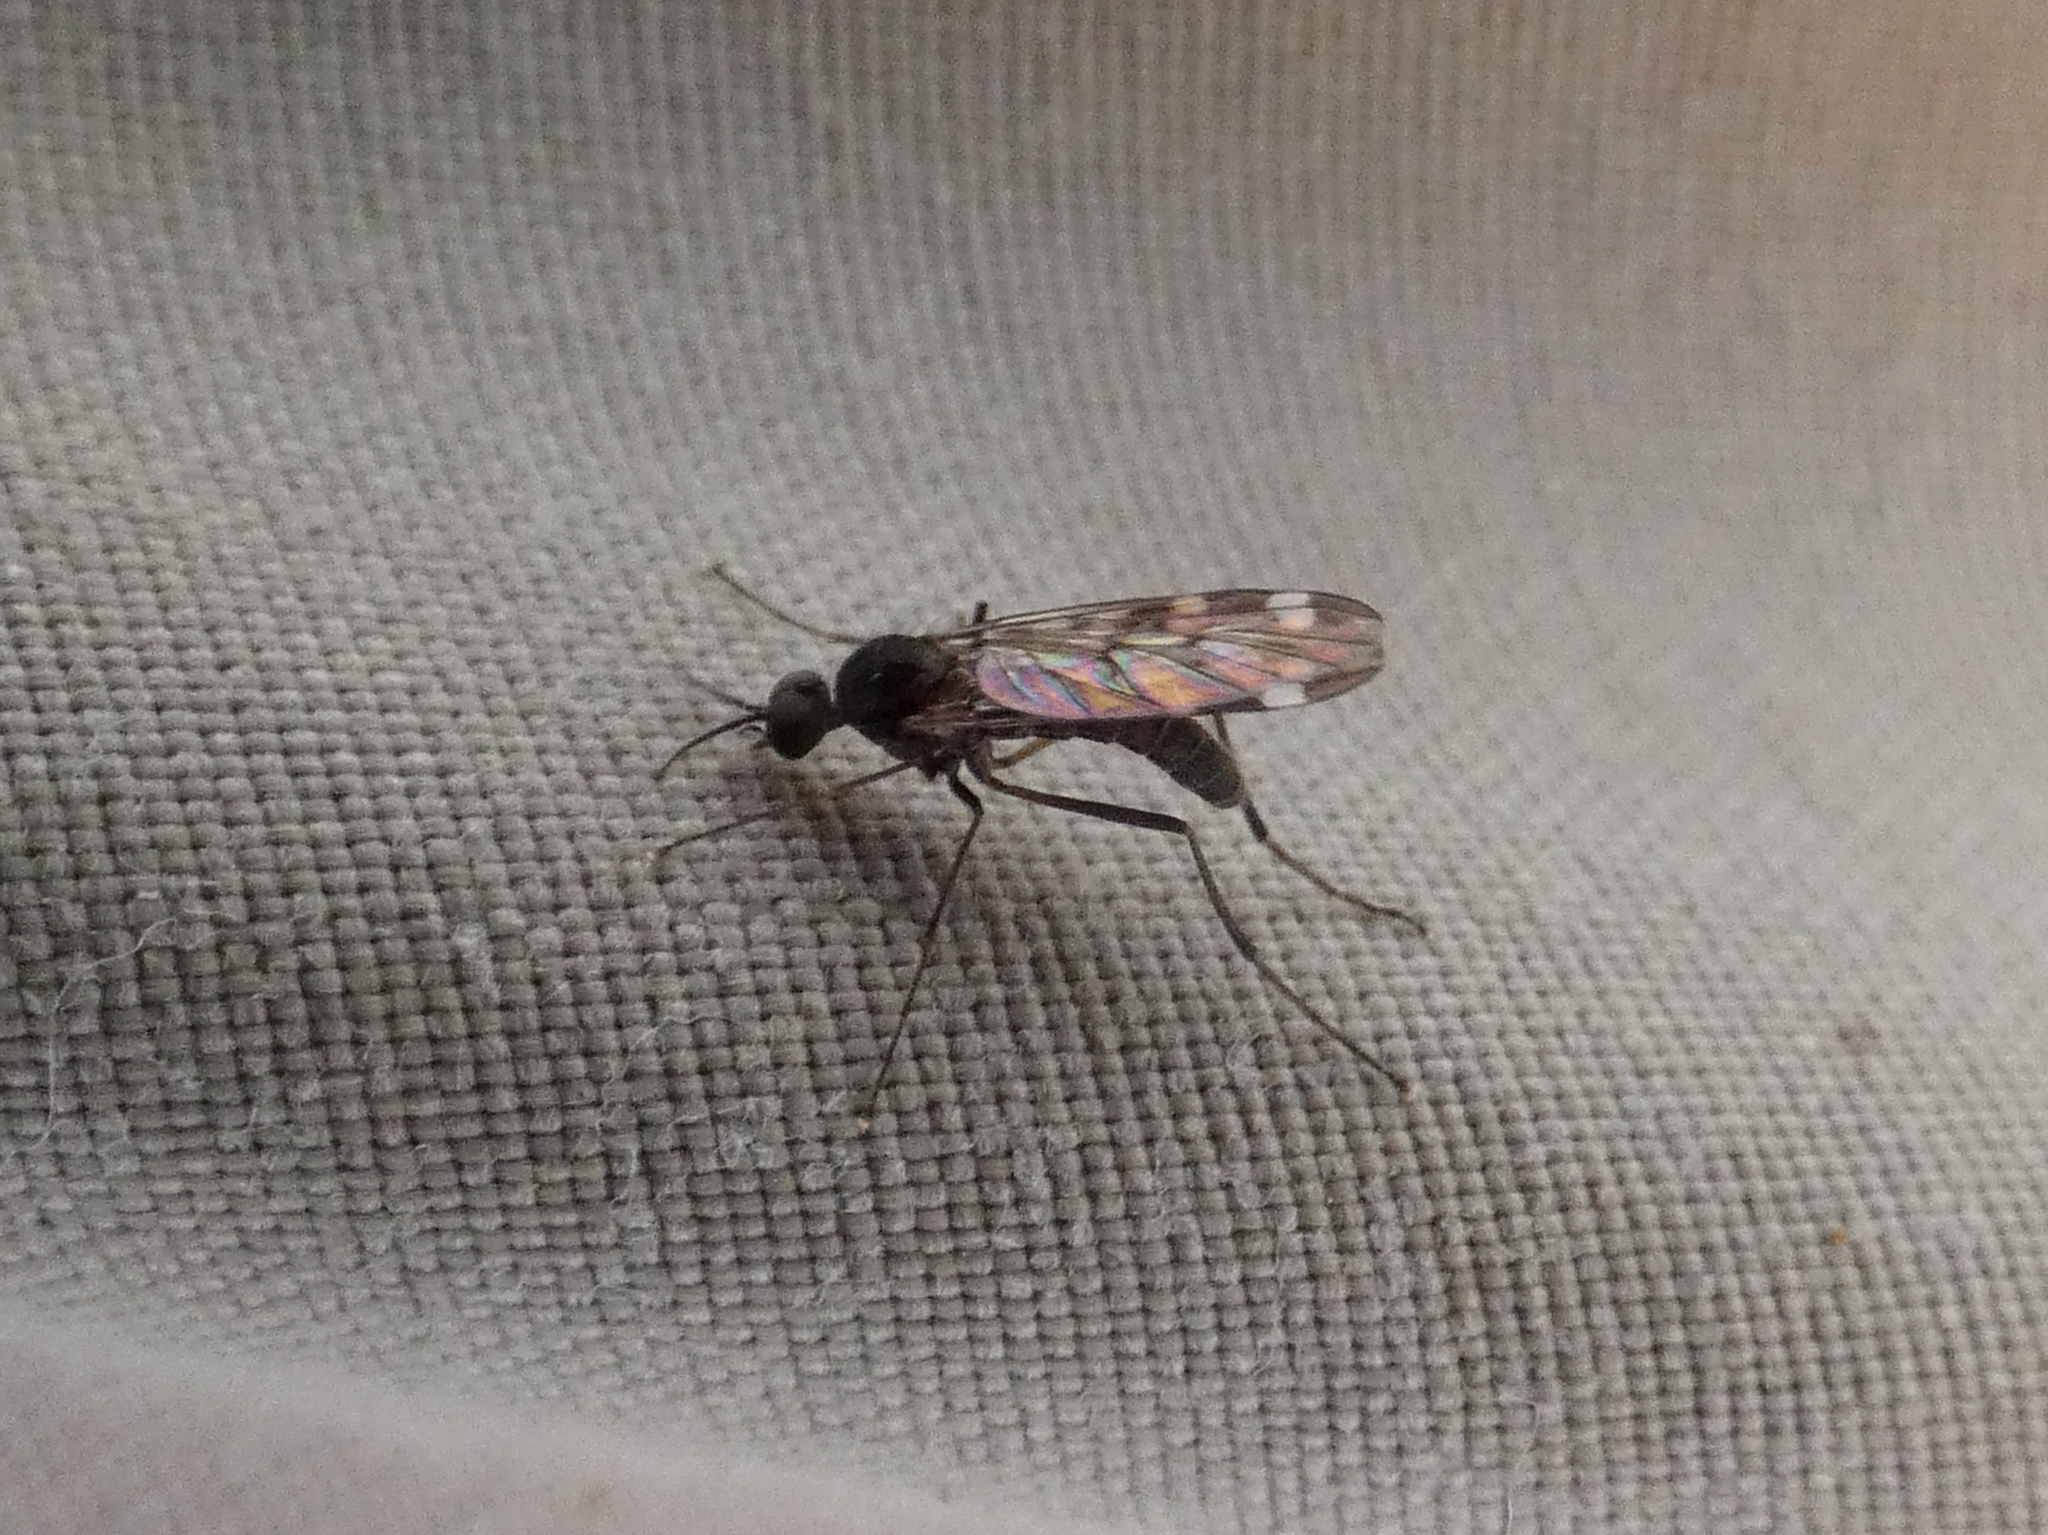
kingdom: Animalia
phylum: Arthropoda
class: Insecta
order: Diptera
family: Anisopodidae
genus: Sylvicola
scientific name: Sylvicola alternata
